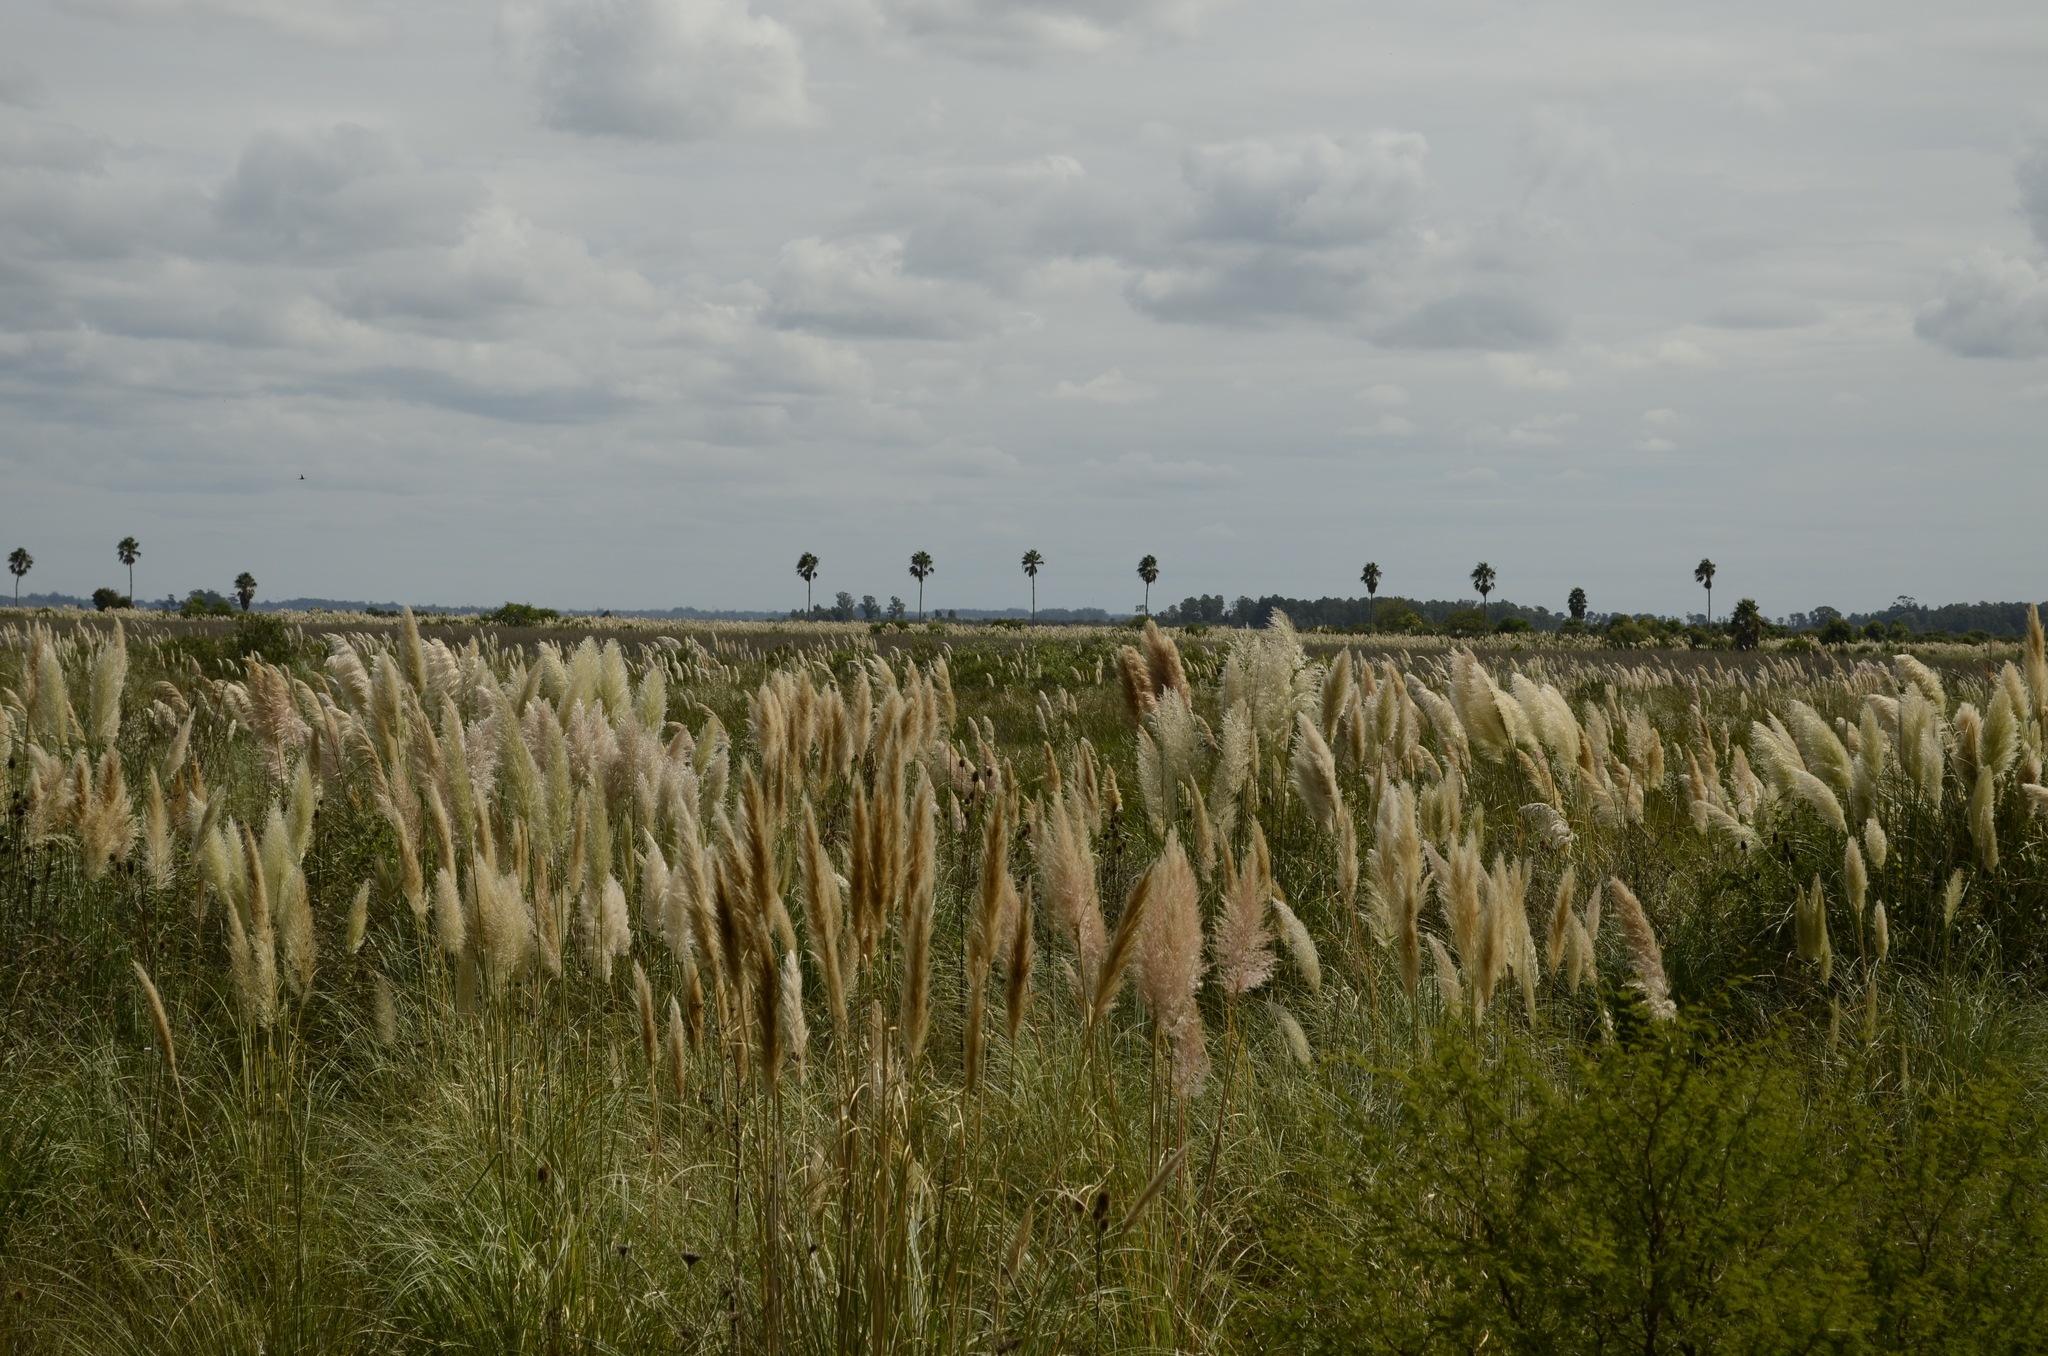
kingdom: Plantae
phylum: Tracheophyta
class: Liliopsida
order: Poales
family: Poaceae
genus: Cortaderia
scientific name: Cortaderia selloana
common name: Uruguayan pampas grass
